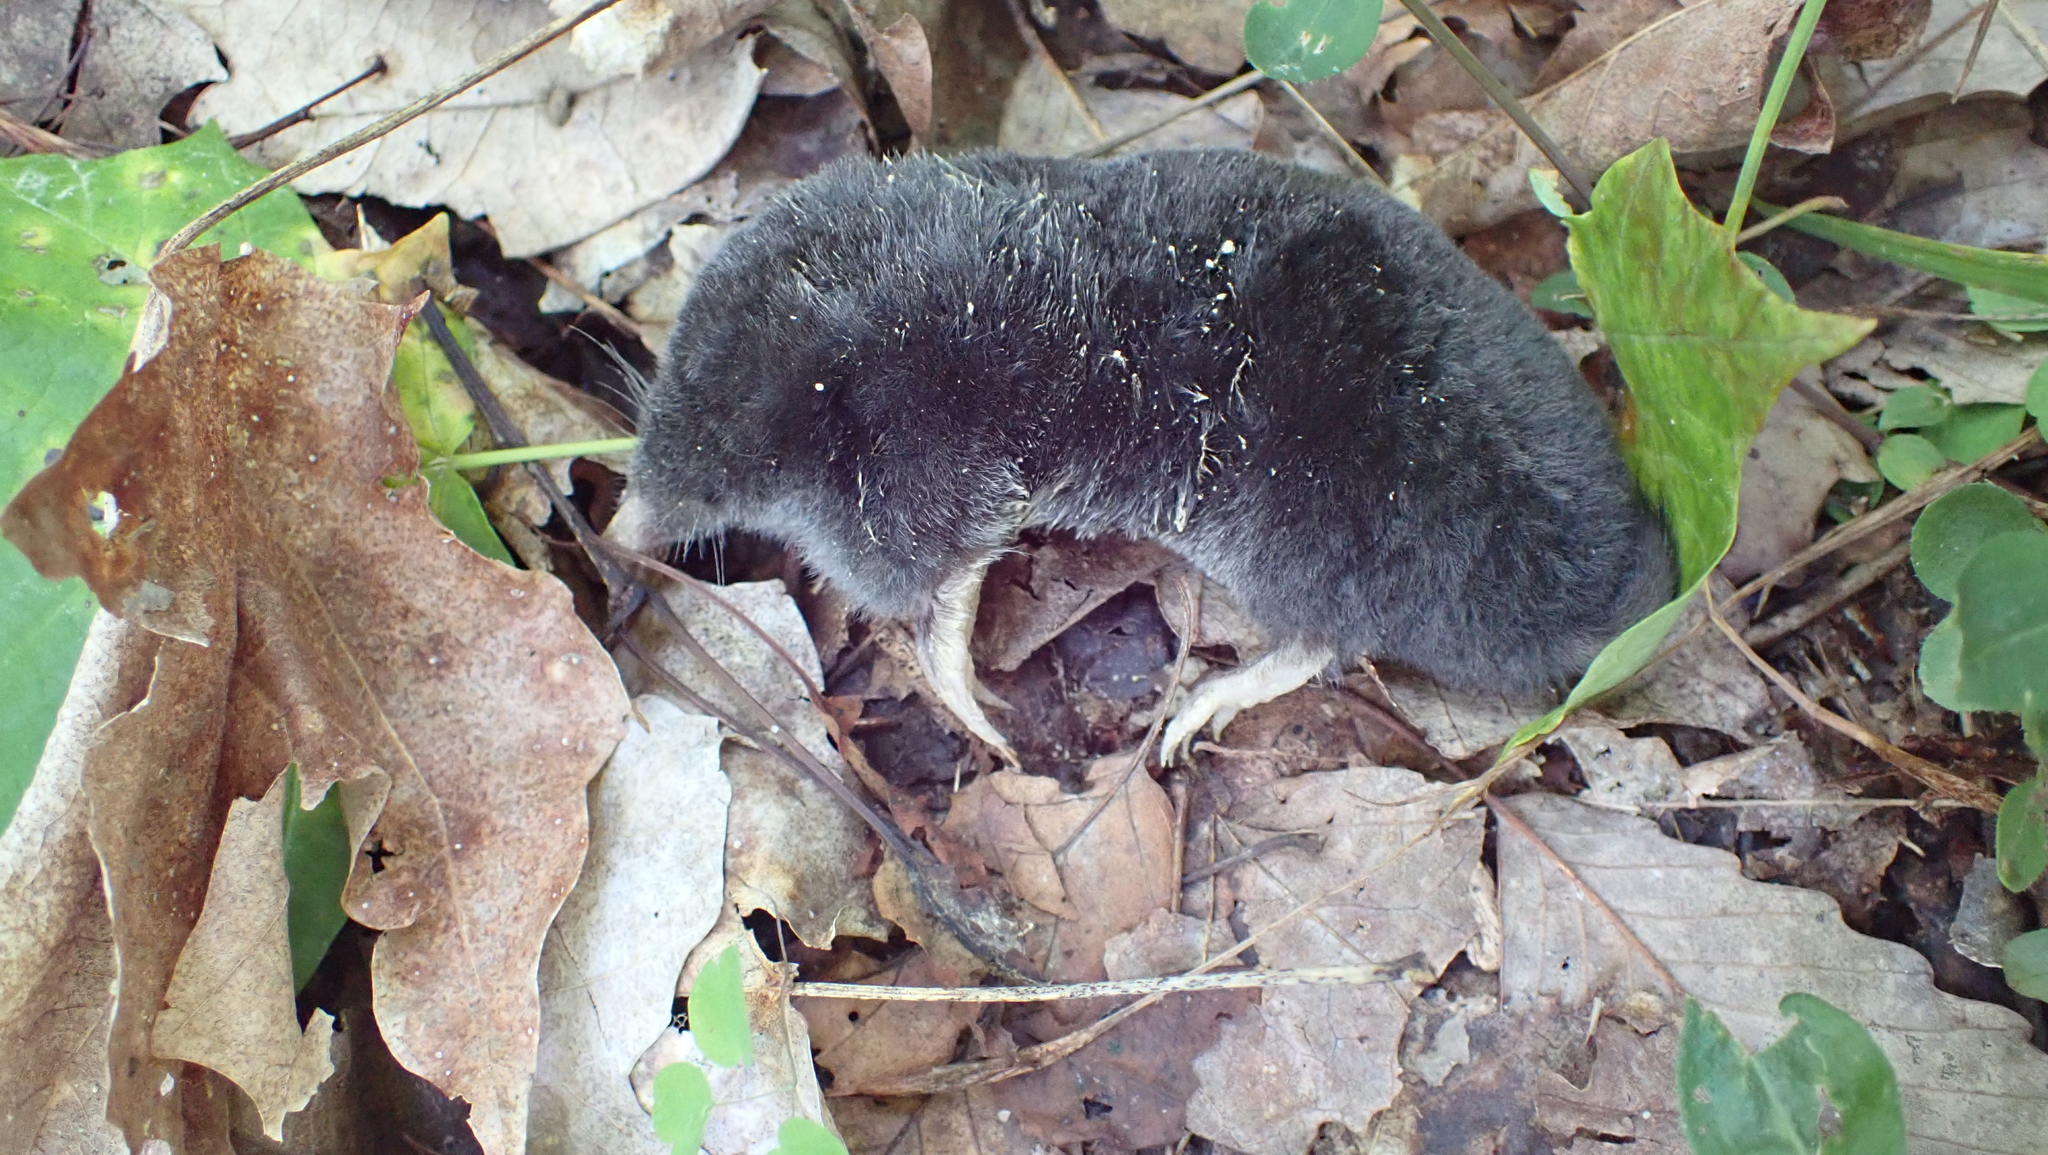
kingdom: Animalia
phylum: Chordata
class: Mammalia
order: Soricomorpha
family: Talpidae
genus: Parascalops
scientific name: Parascalops breweri
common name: Hairy-tailed mole
